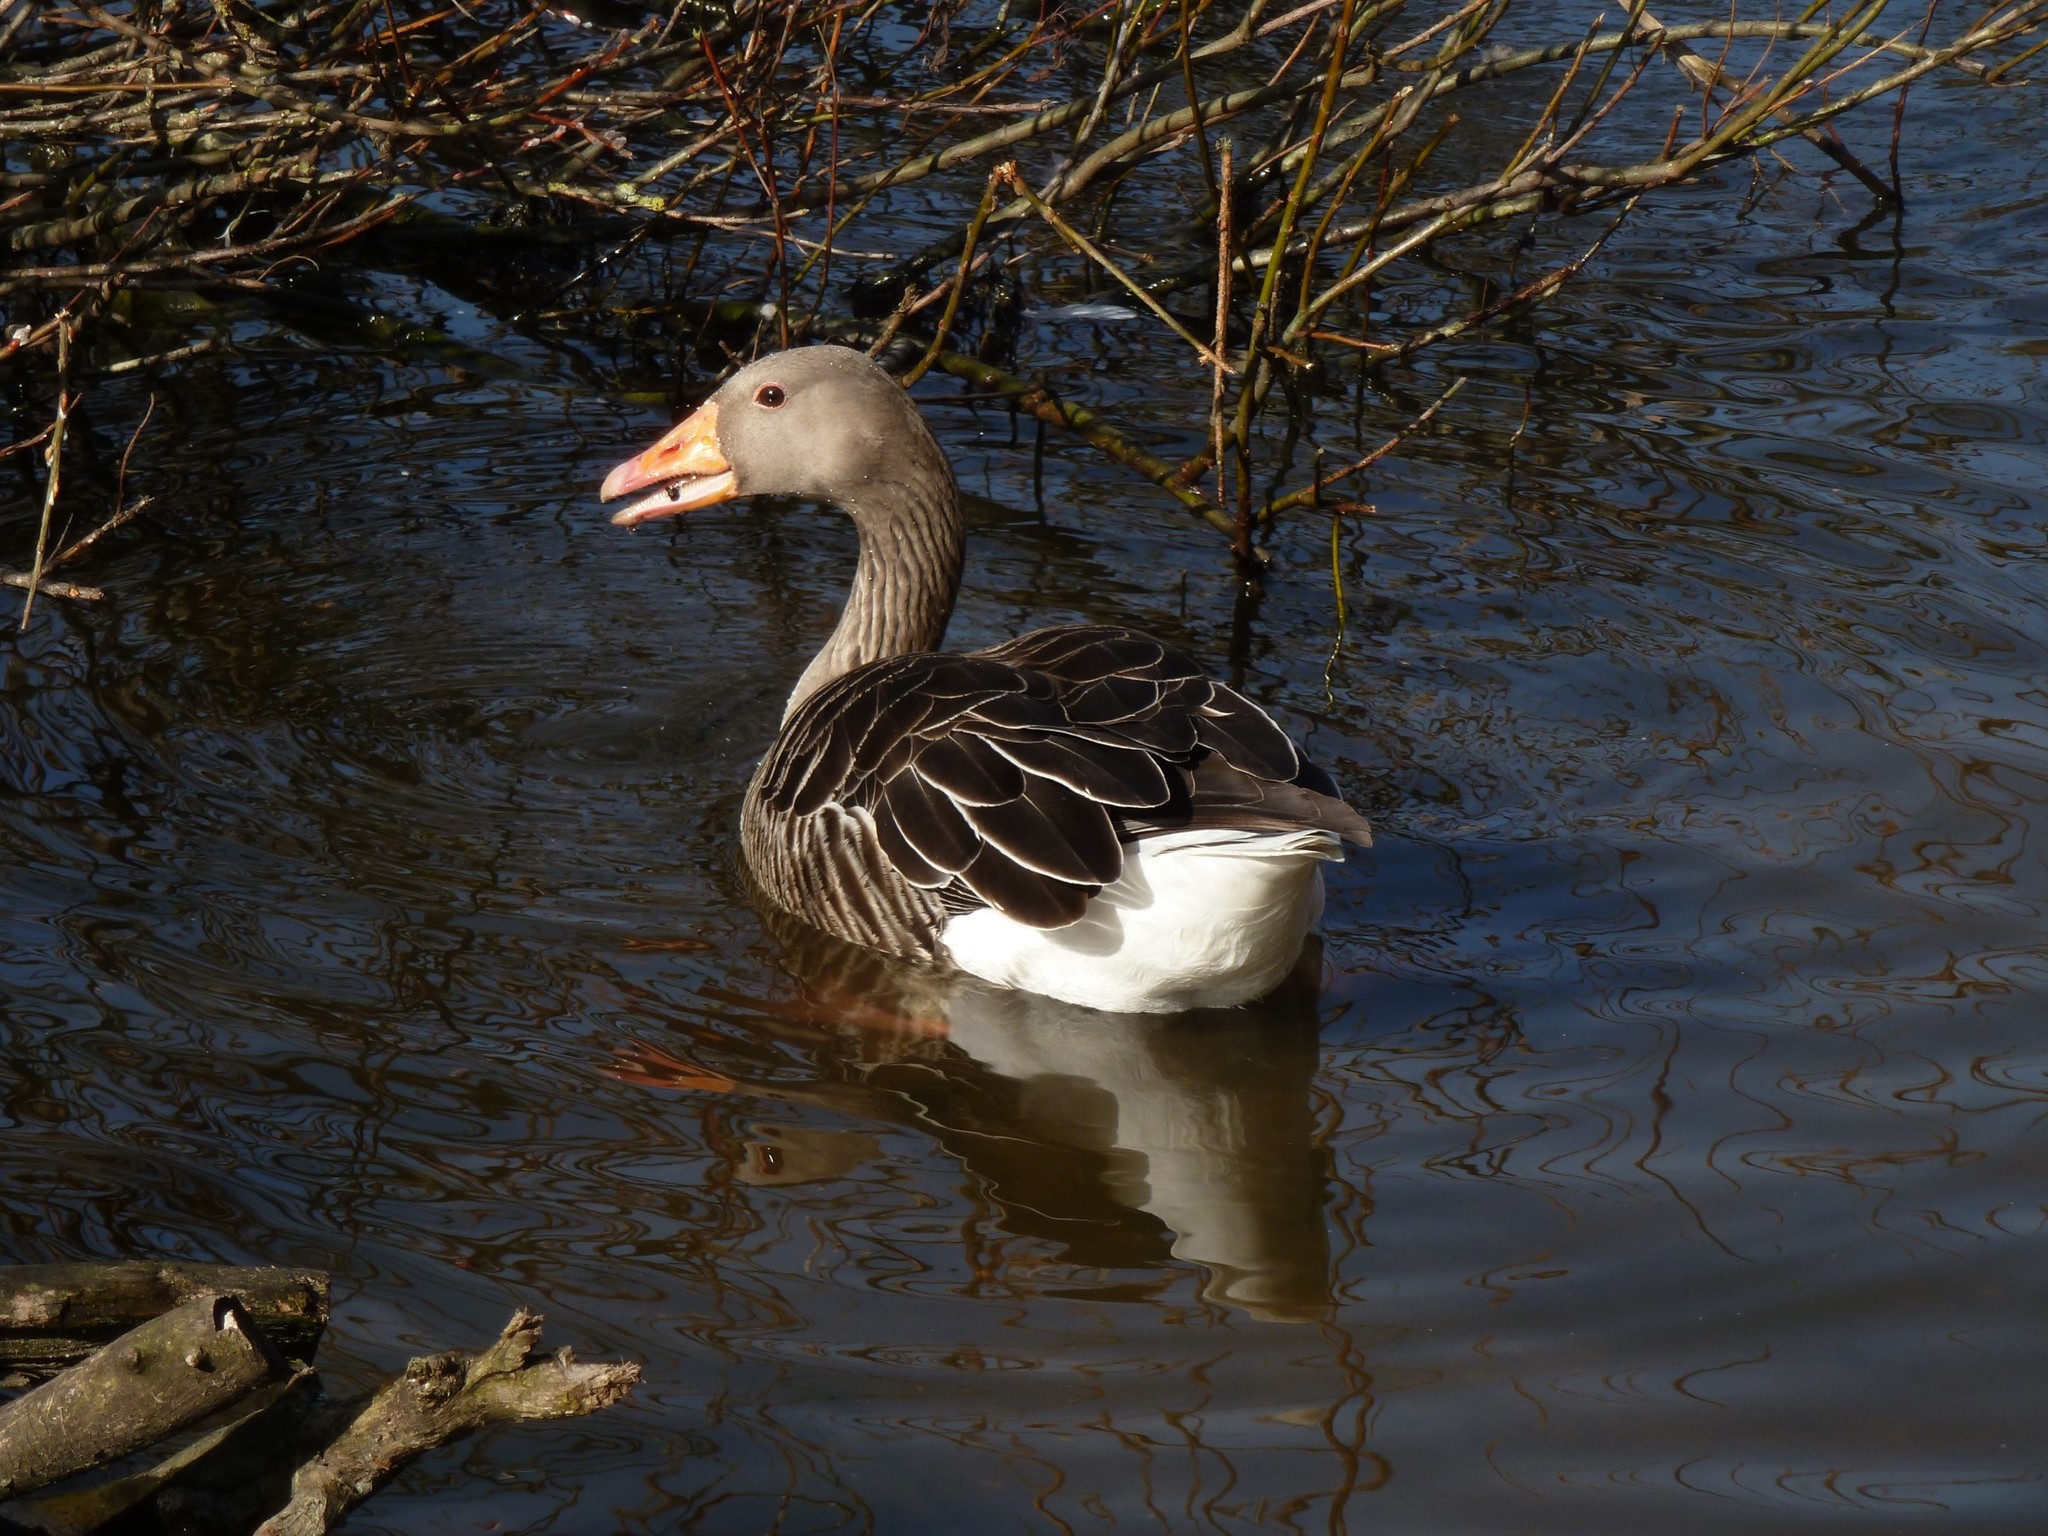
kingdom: Animalia
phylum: Chordata
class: Aves
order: Anseriformes
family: Anatidae
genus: Anser
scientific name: Anser anser
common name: Greylag goose
